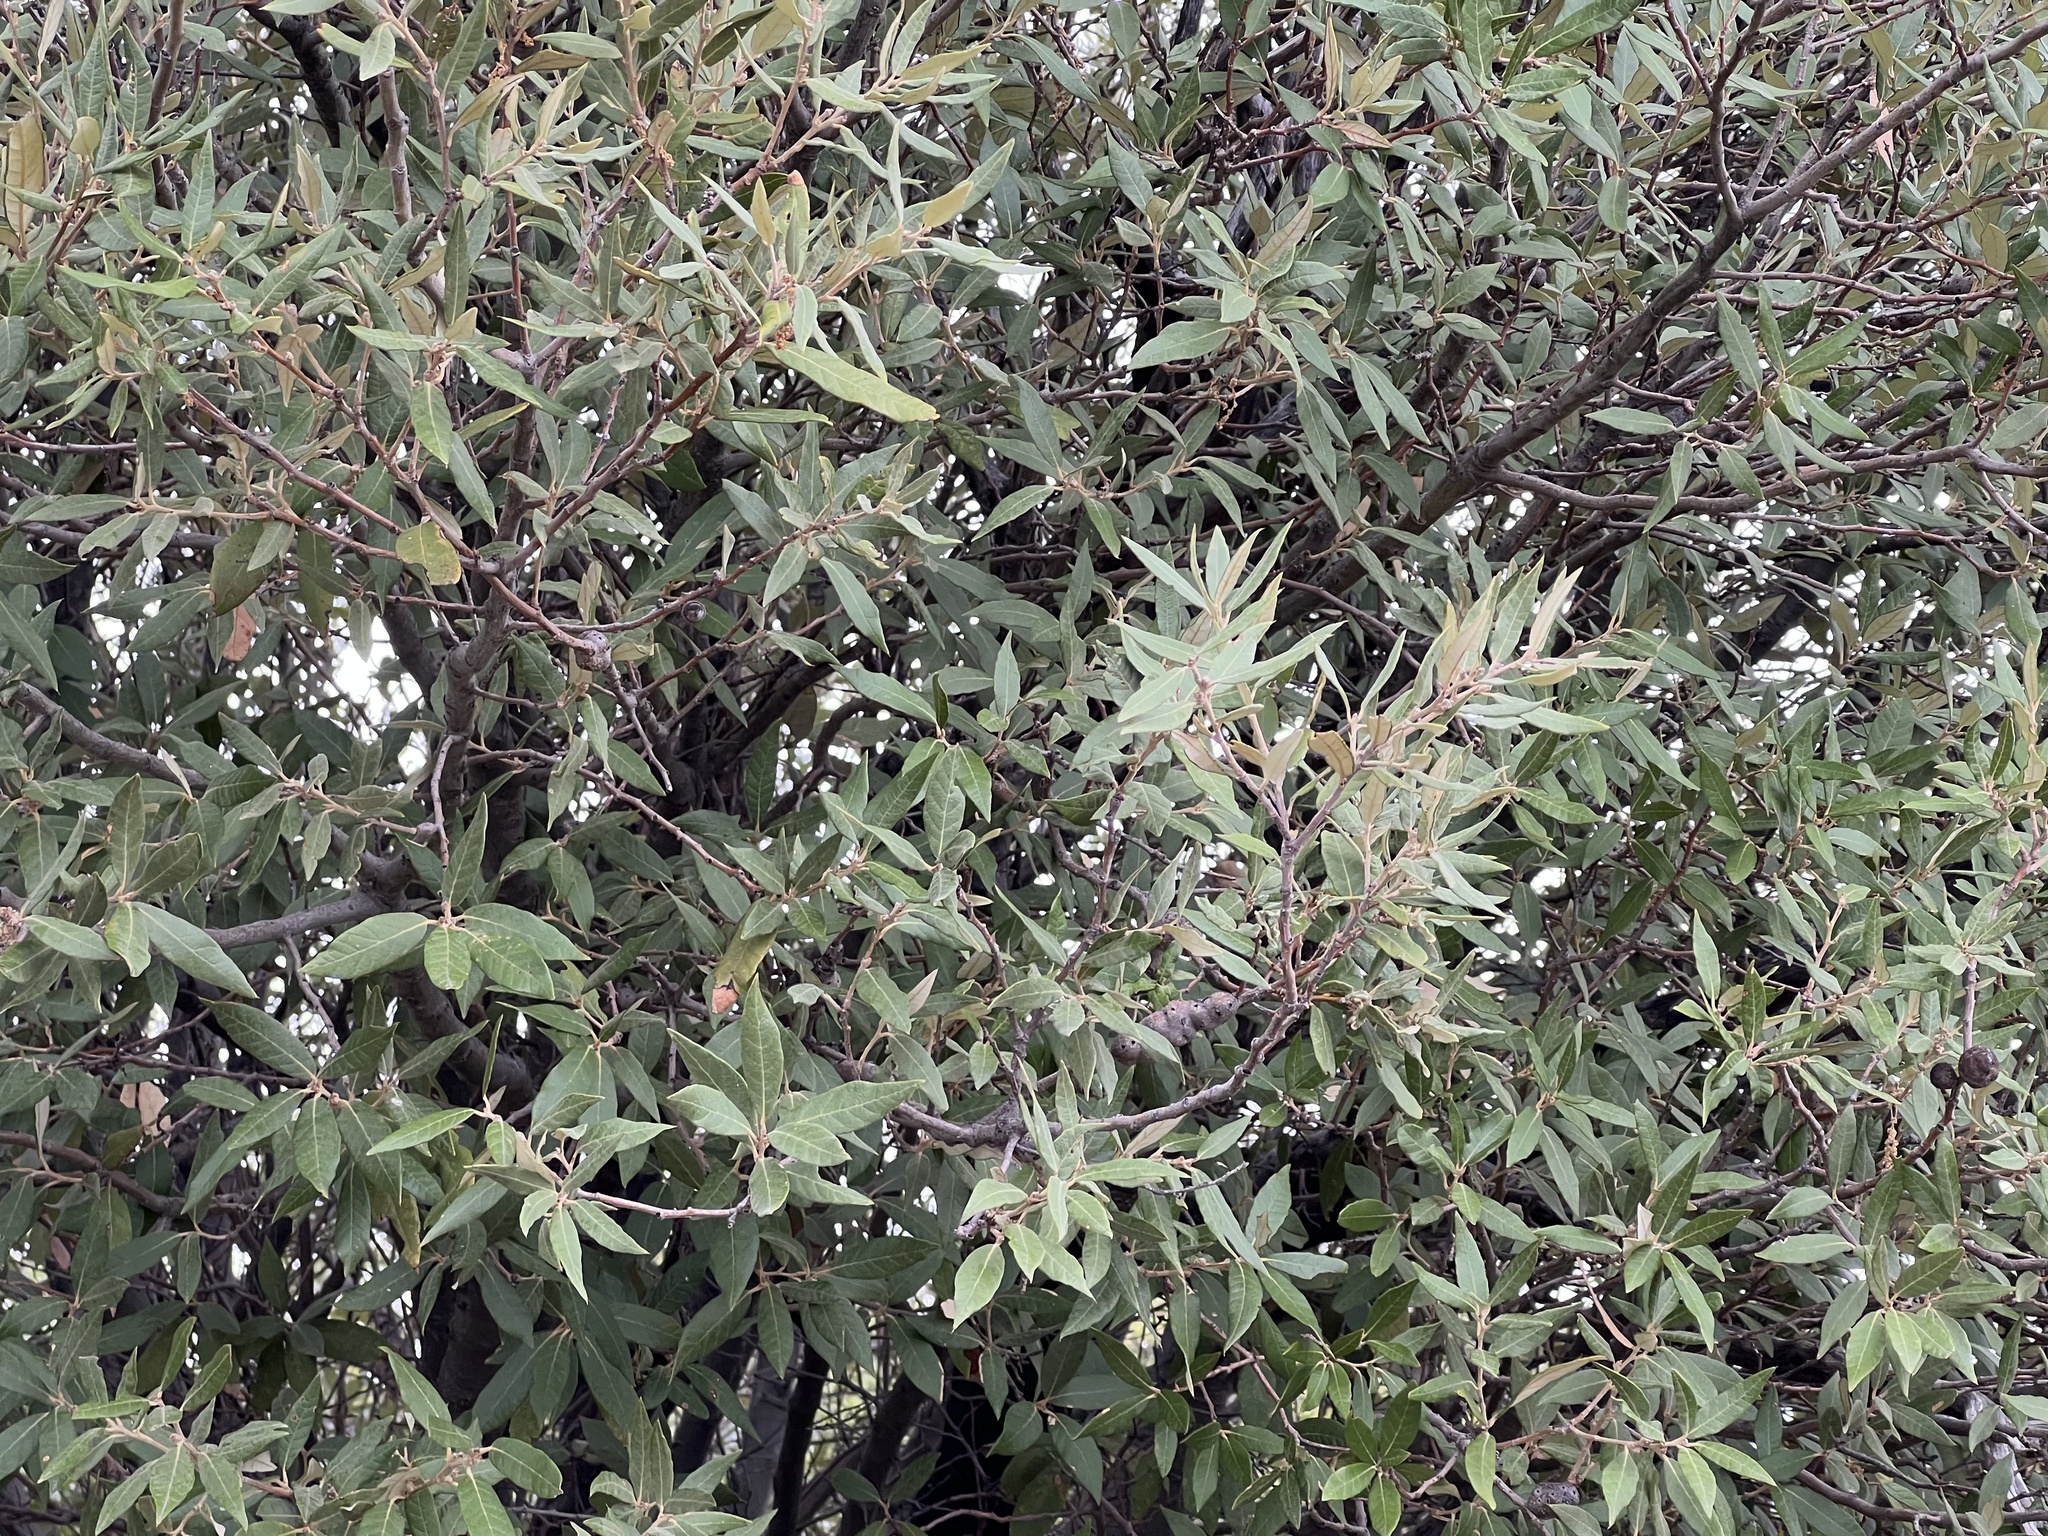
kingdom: Plantae
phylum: Tracheophyta
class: Magnoliopsida
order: Fagales
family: Fagaceae
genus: Quercus
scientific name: Quercus hypoleucoides
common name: Silverleaf oak
